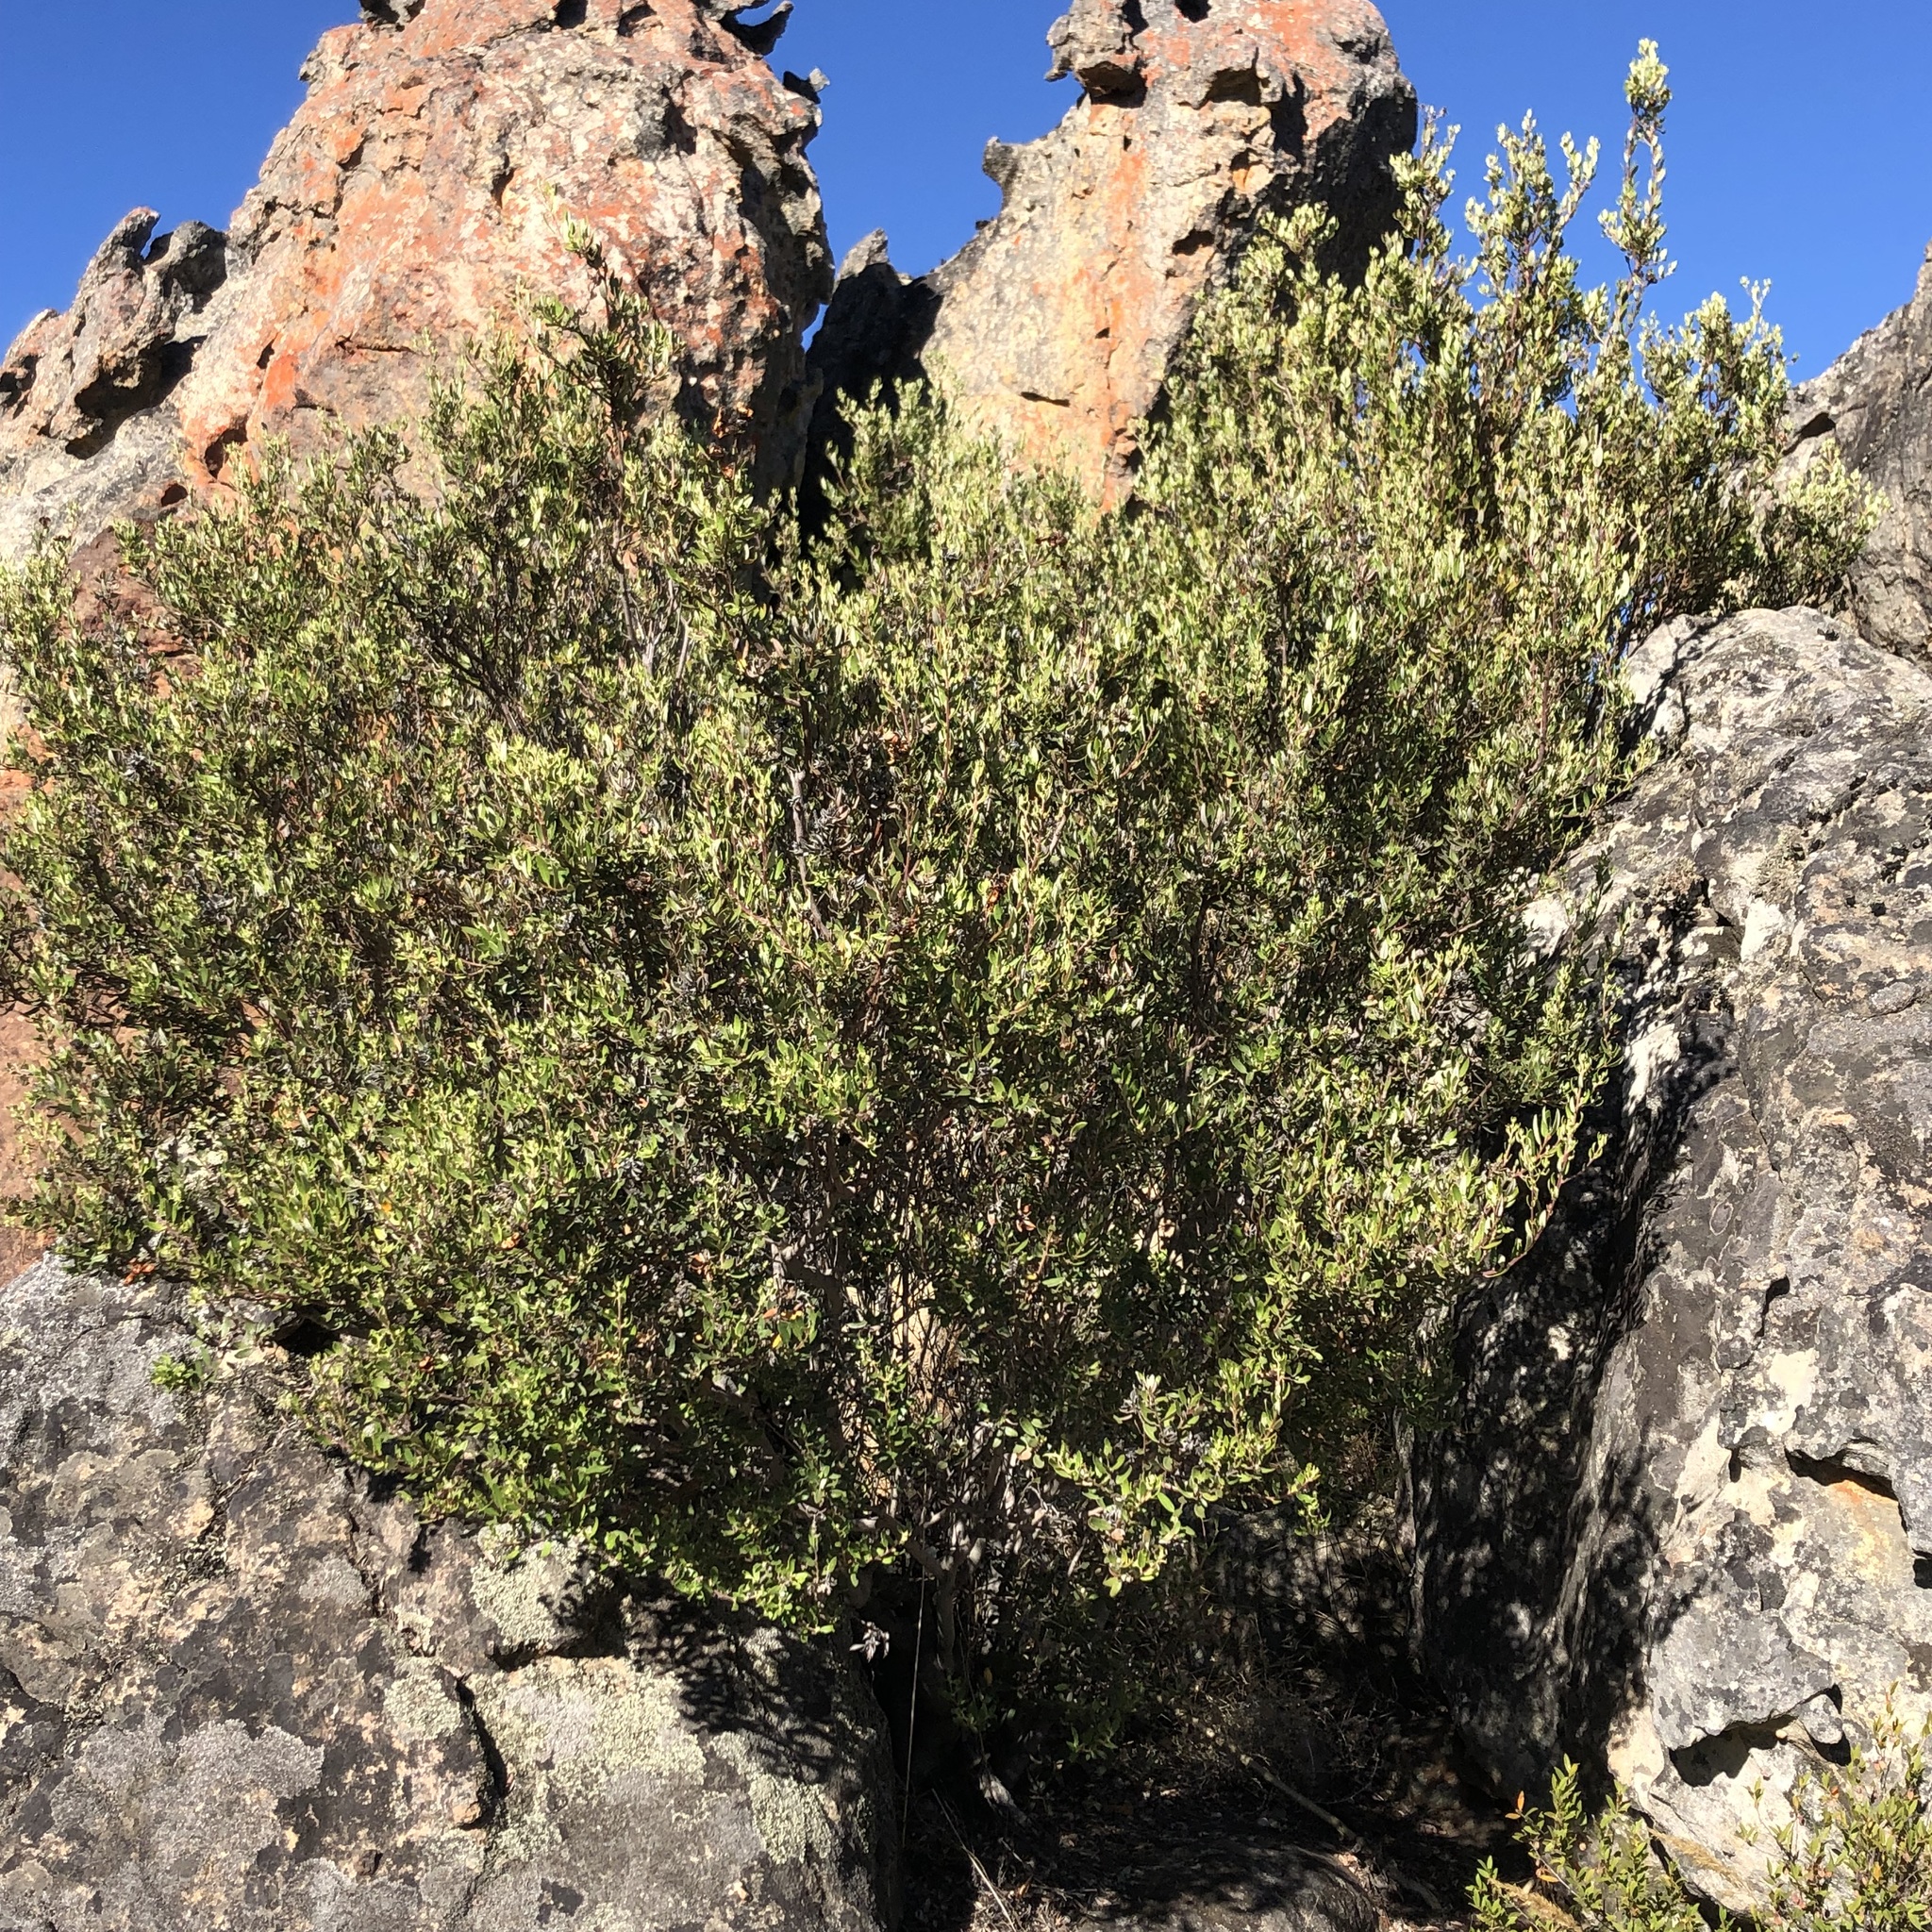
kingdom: Plantae
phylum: Tracheophyta
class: Magnoliopsida
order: Rosales
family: Rhamnaceae
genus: Phylica
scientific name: Phylica oleifolia
